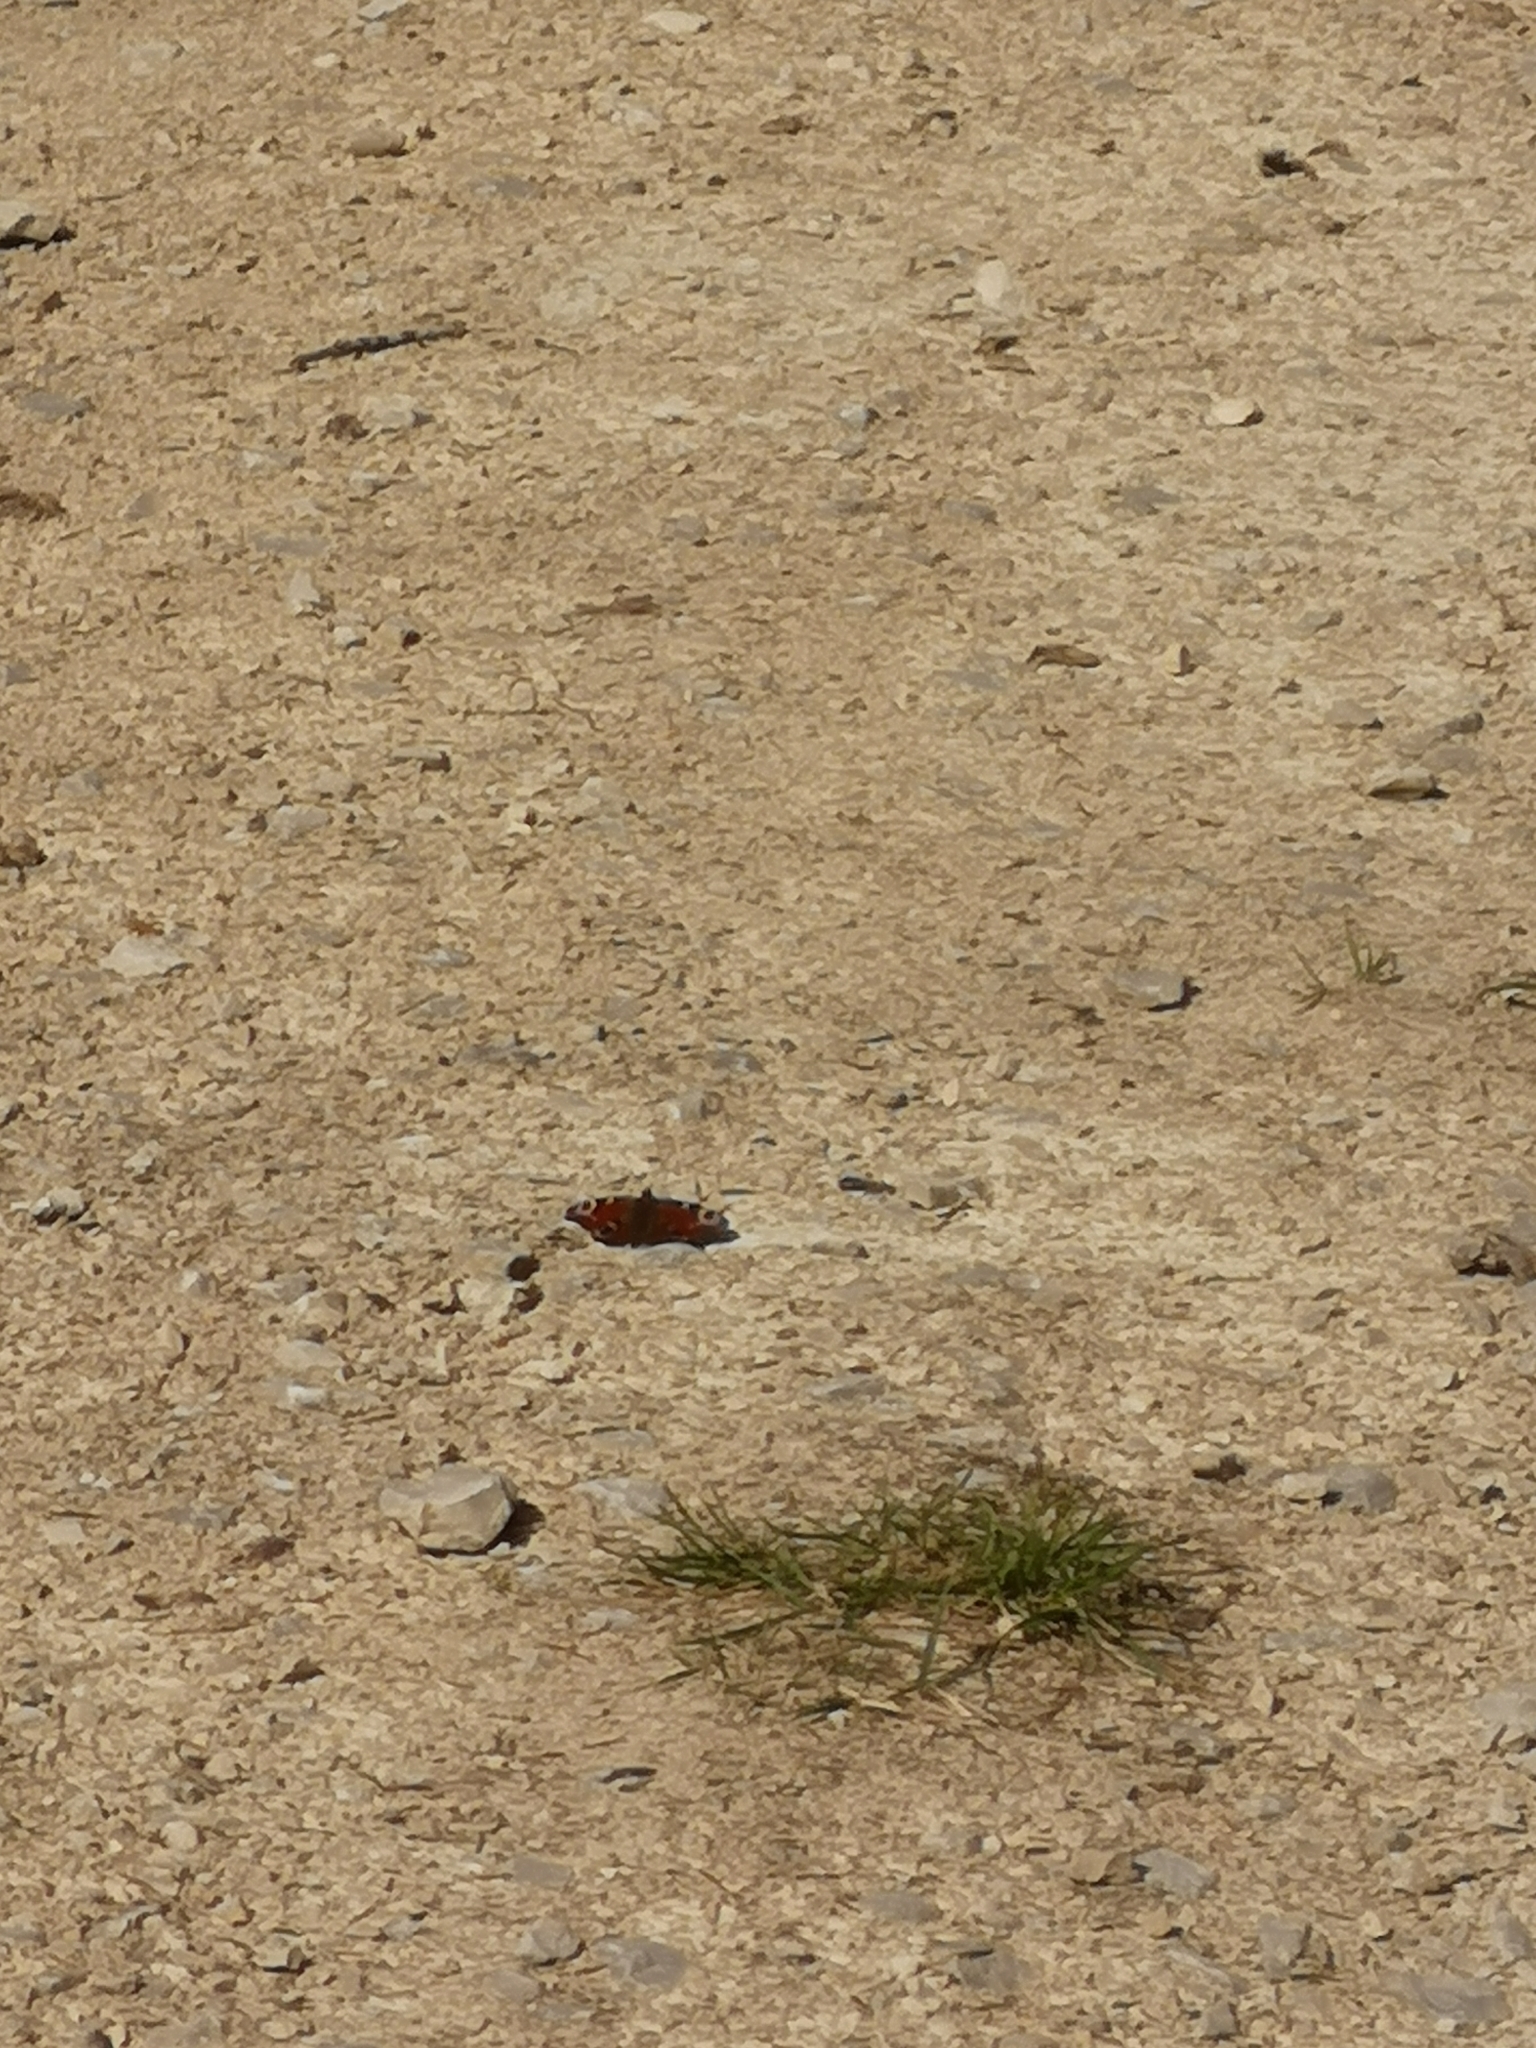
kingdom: Animalia
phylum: Arthropoda
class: Insecta
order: Lepidoptera
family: Nymphalidae
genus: Aglais
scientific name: Aglais io
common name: Peacock
